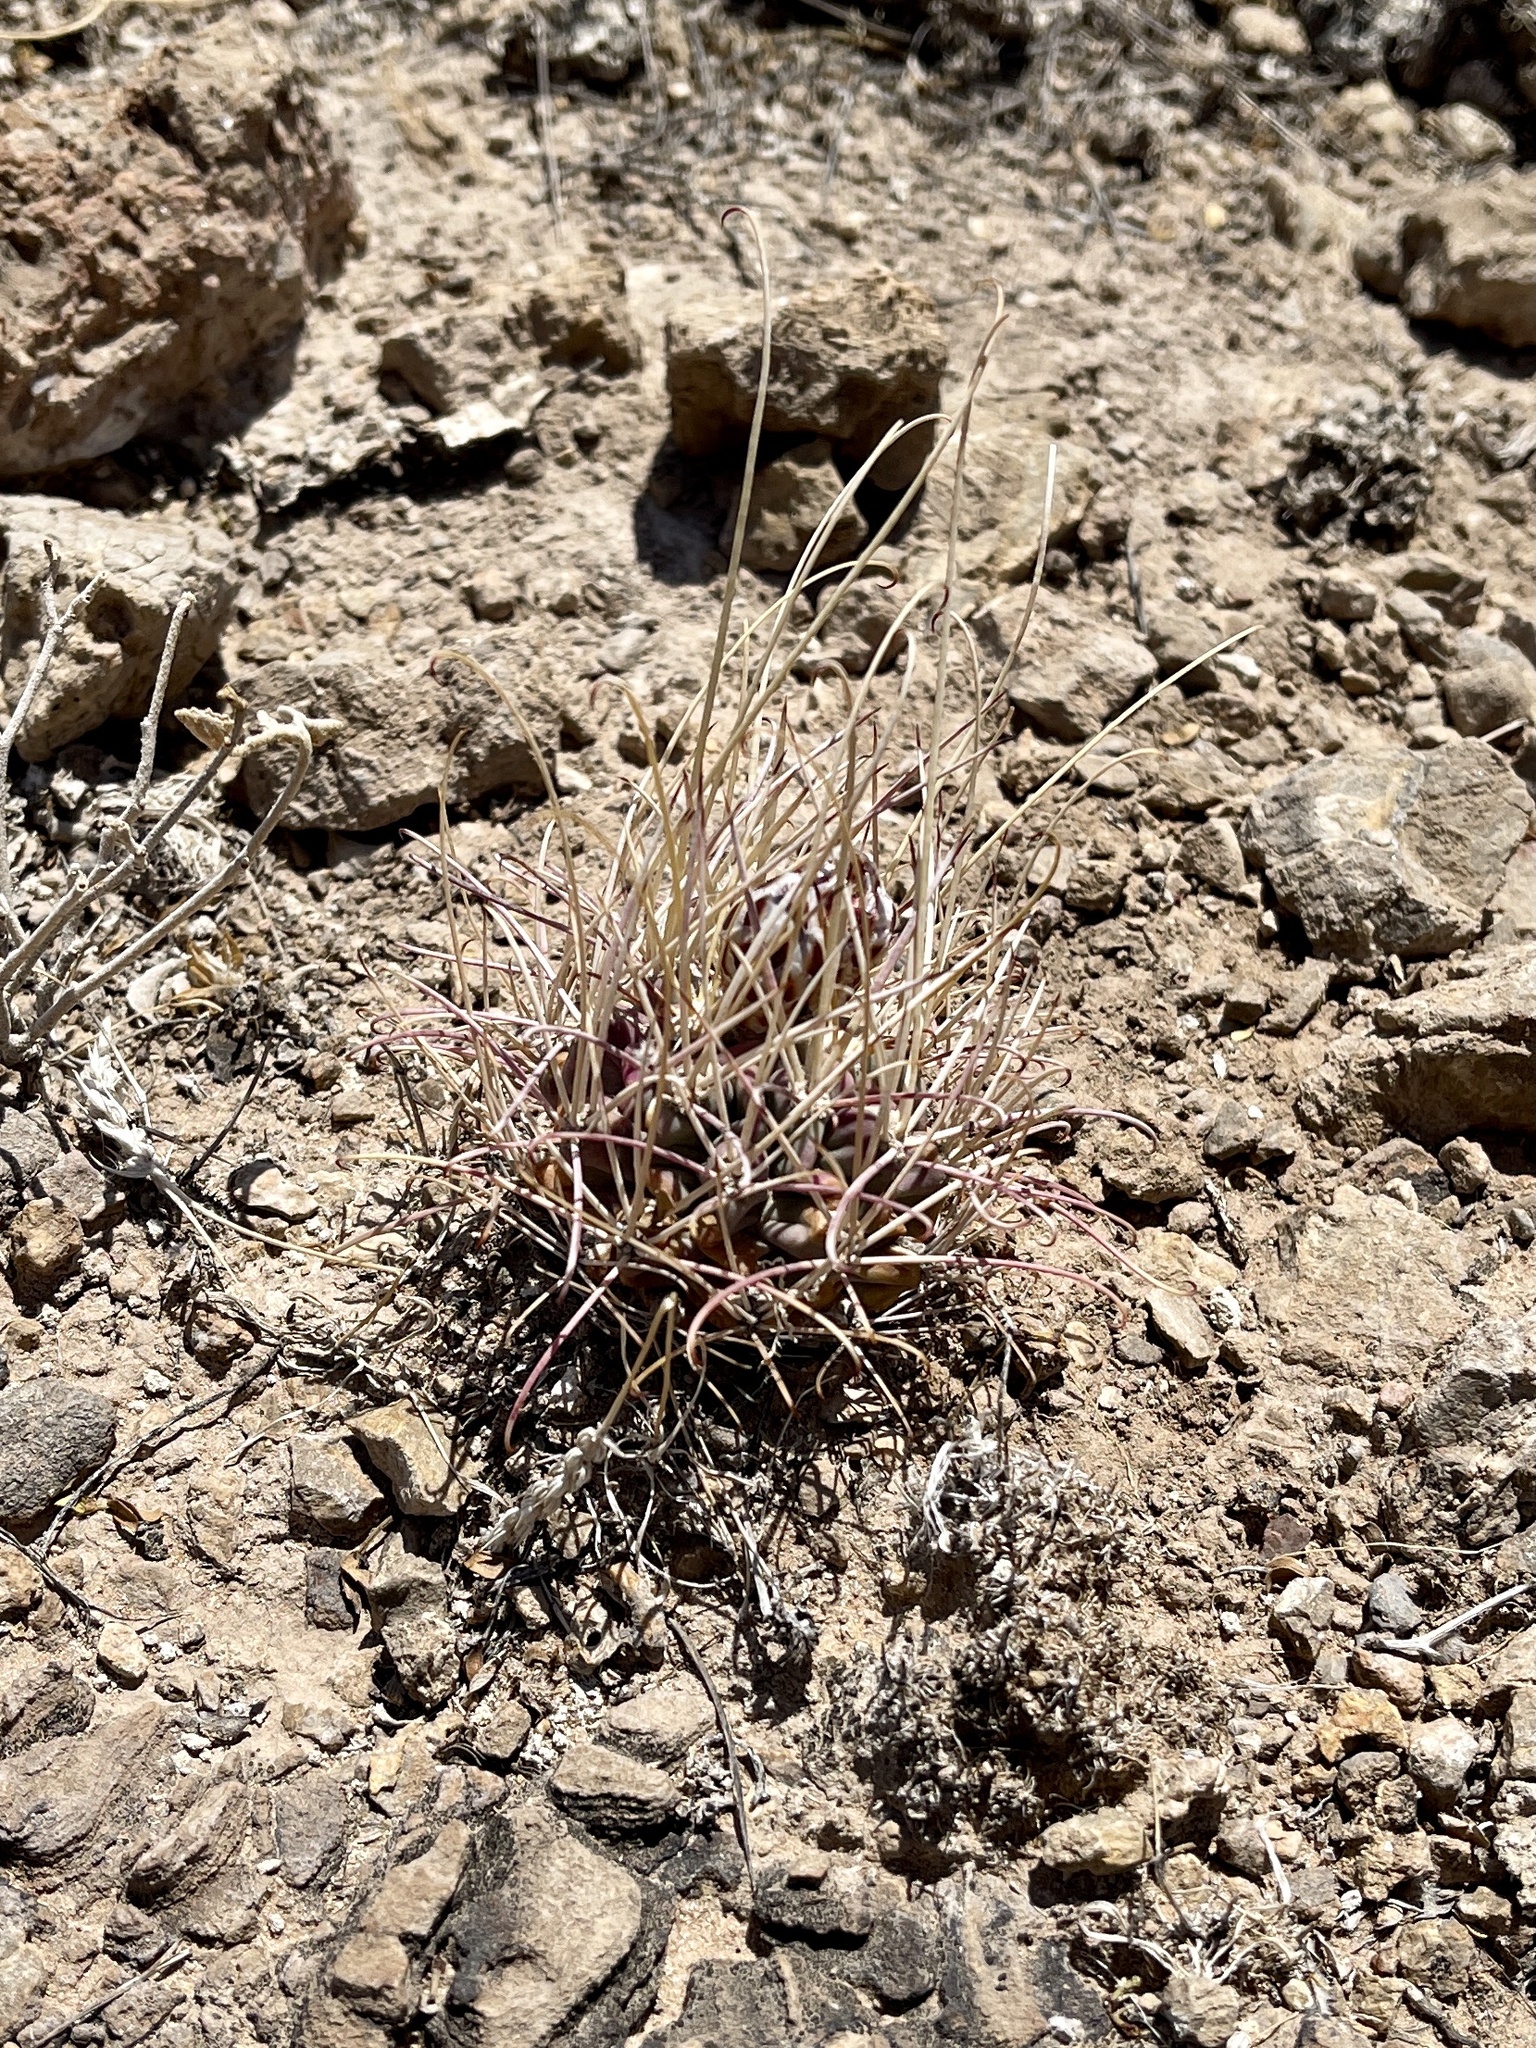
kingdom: Plantae
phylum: Tracheophyta
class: Magnoliopsida
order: Caryophyllales
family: Cactaceae
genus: Ferocactus
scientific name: Ferocactus uncinatus
